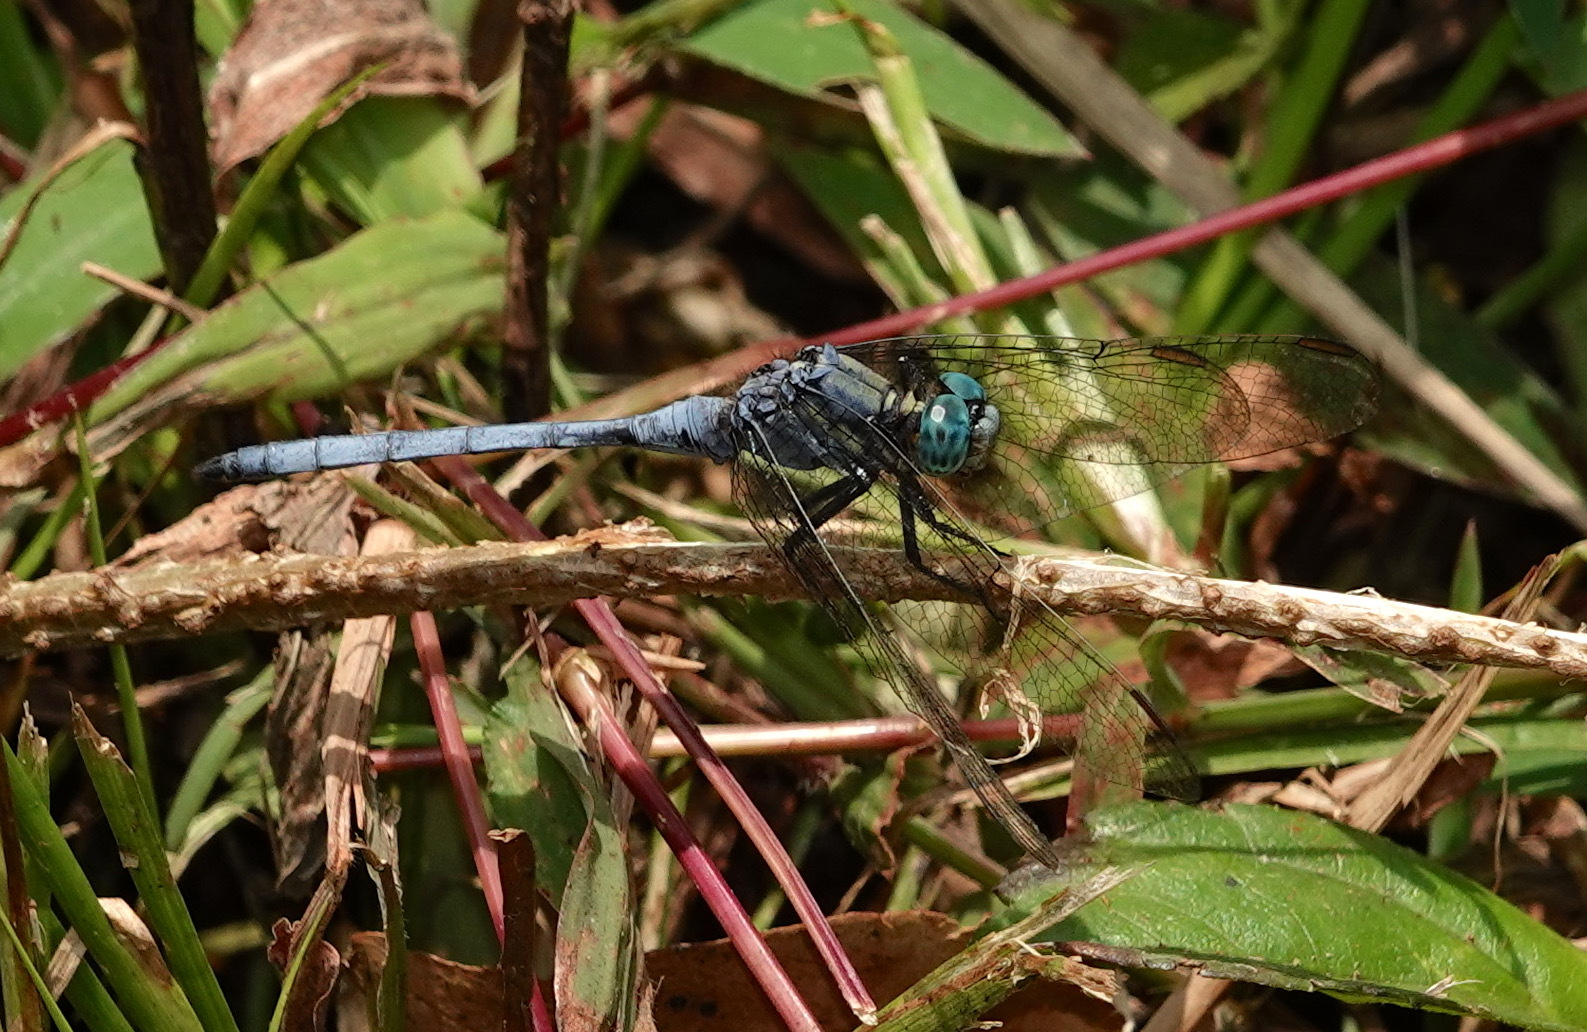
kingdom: Animalia
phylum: Arthropoda
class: Insecta
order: Odonata
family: Libellulidae
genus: Orthetrum
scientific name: Orthetrum luzonicum
